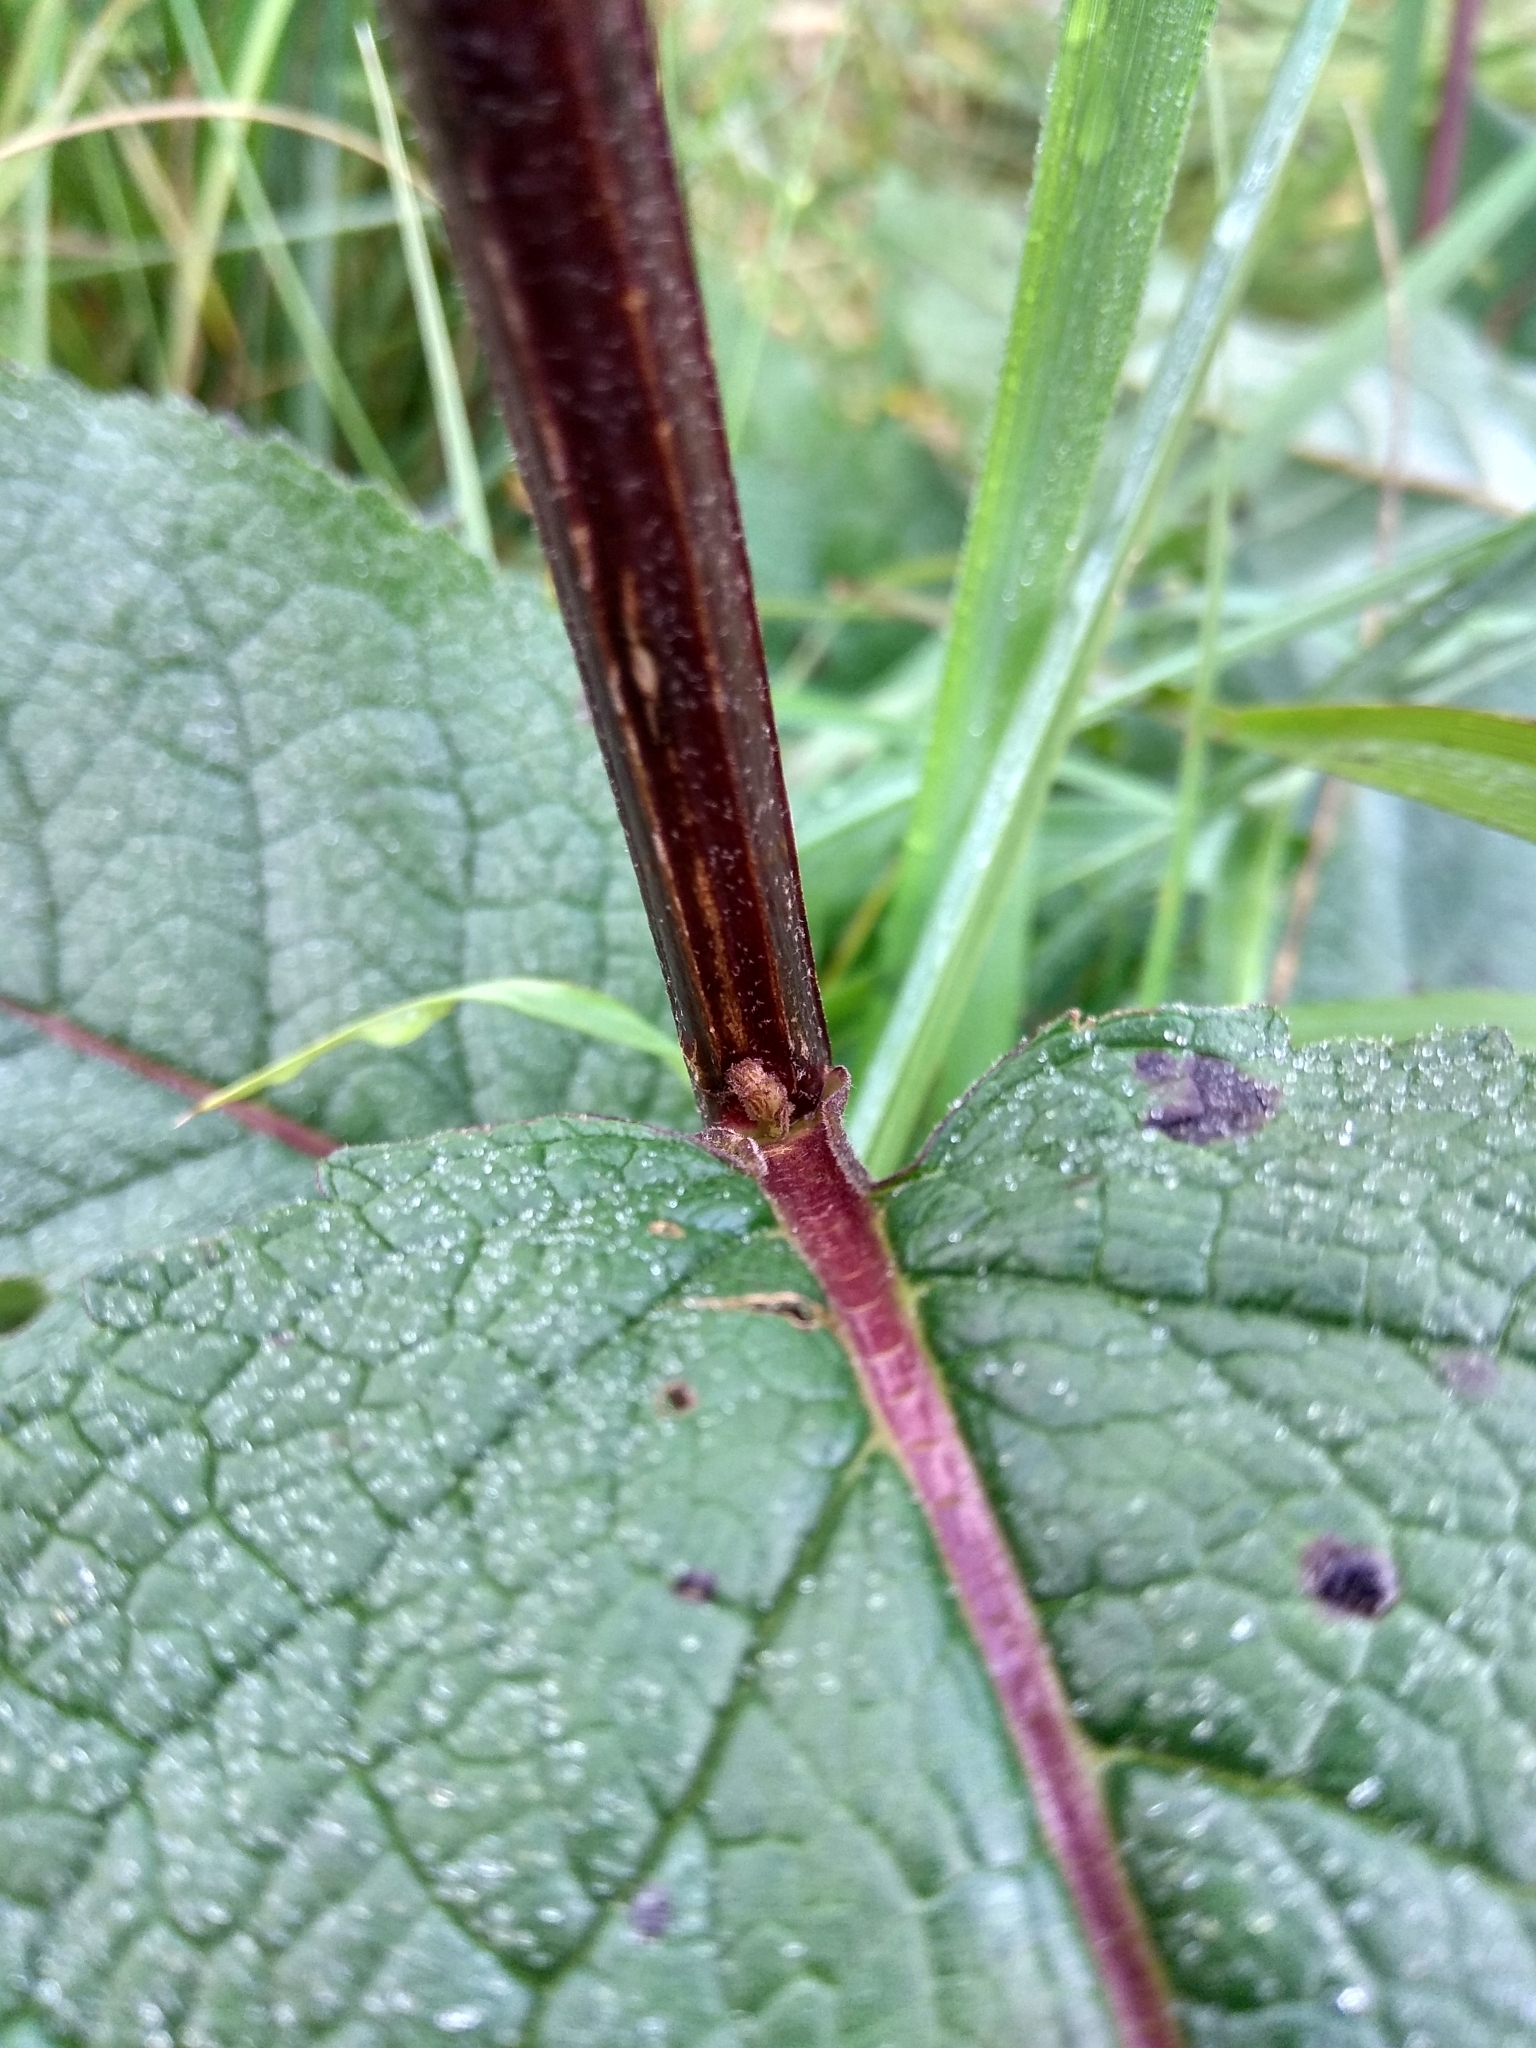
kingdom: Plantae
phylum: Tracheophyta
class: Magnoliopsida
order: Lamiales
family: Scrophulariaceae
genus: Verbascum
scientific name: Verbascum nigrum
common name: Dark mullein
